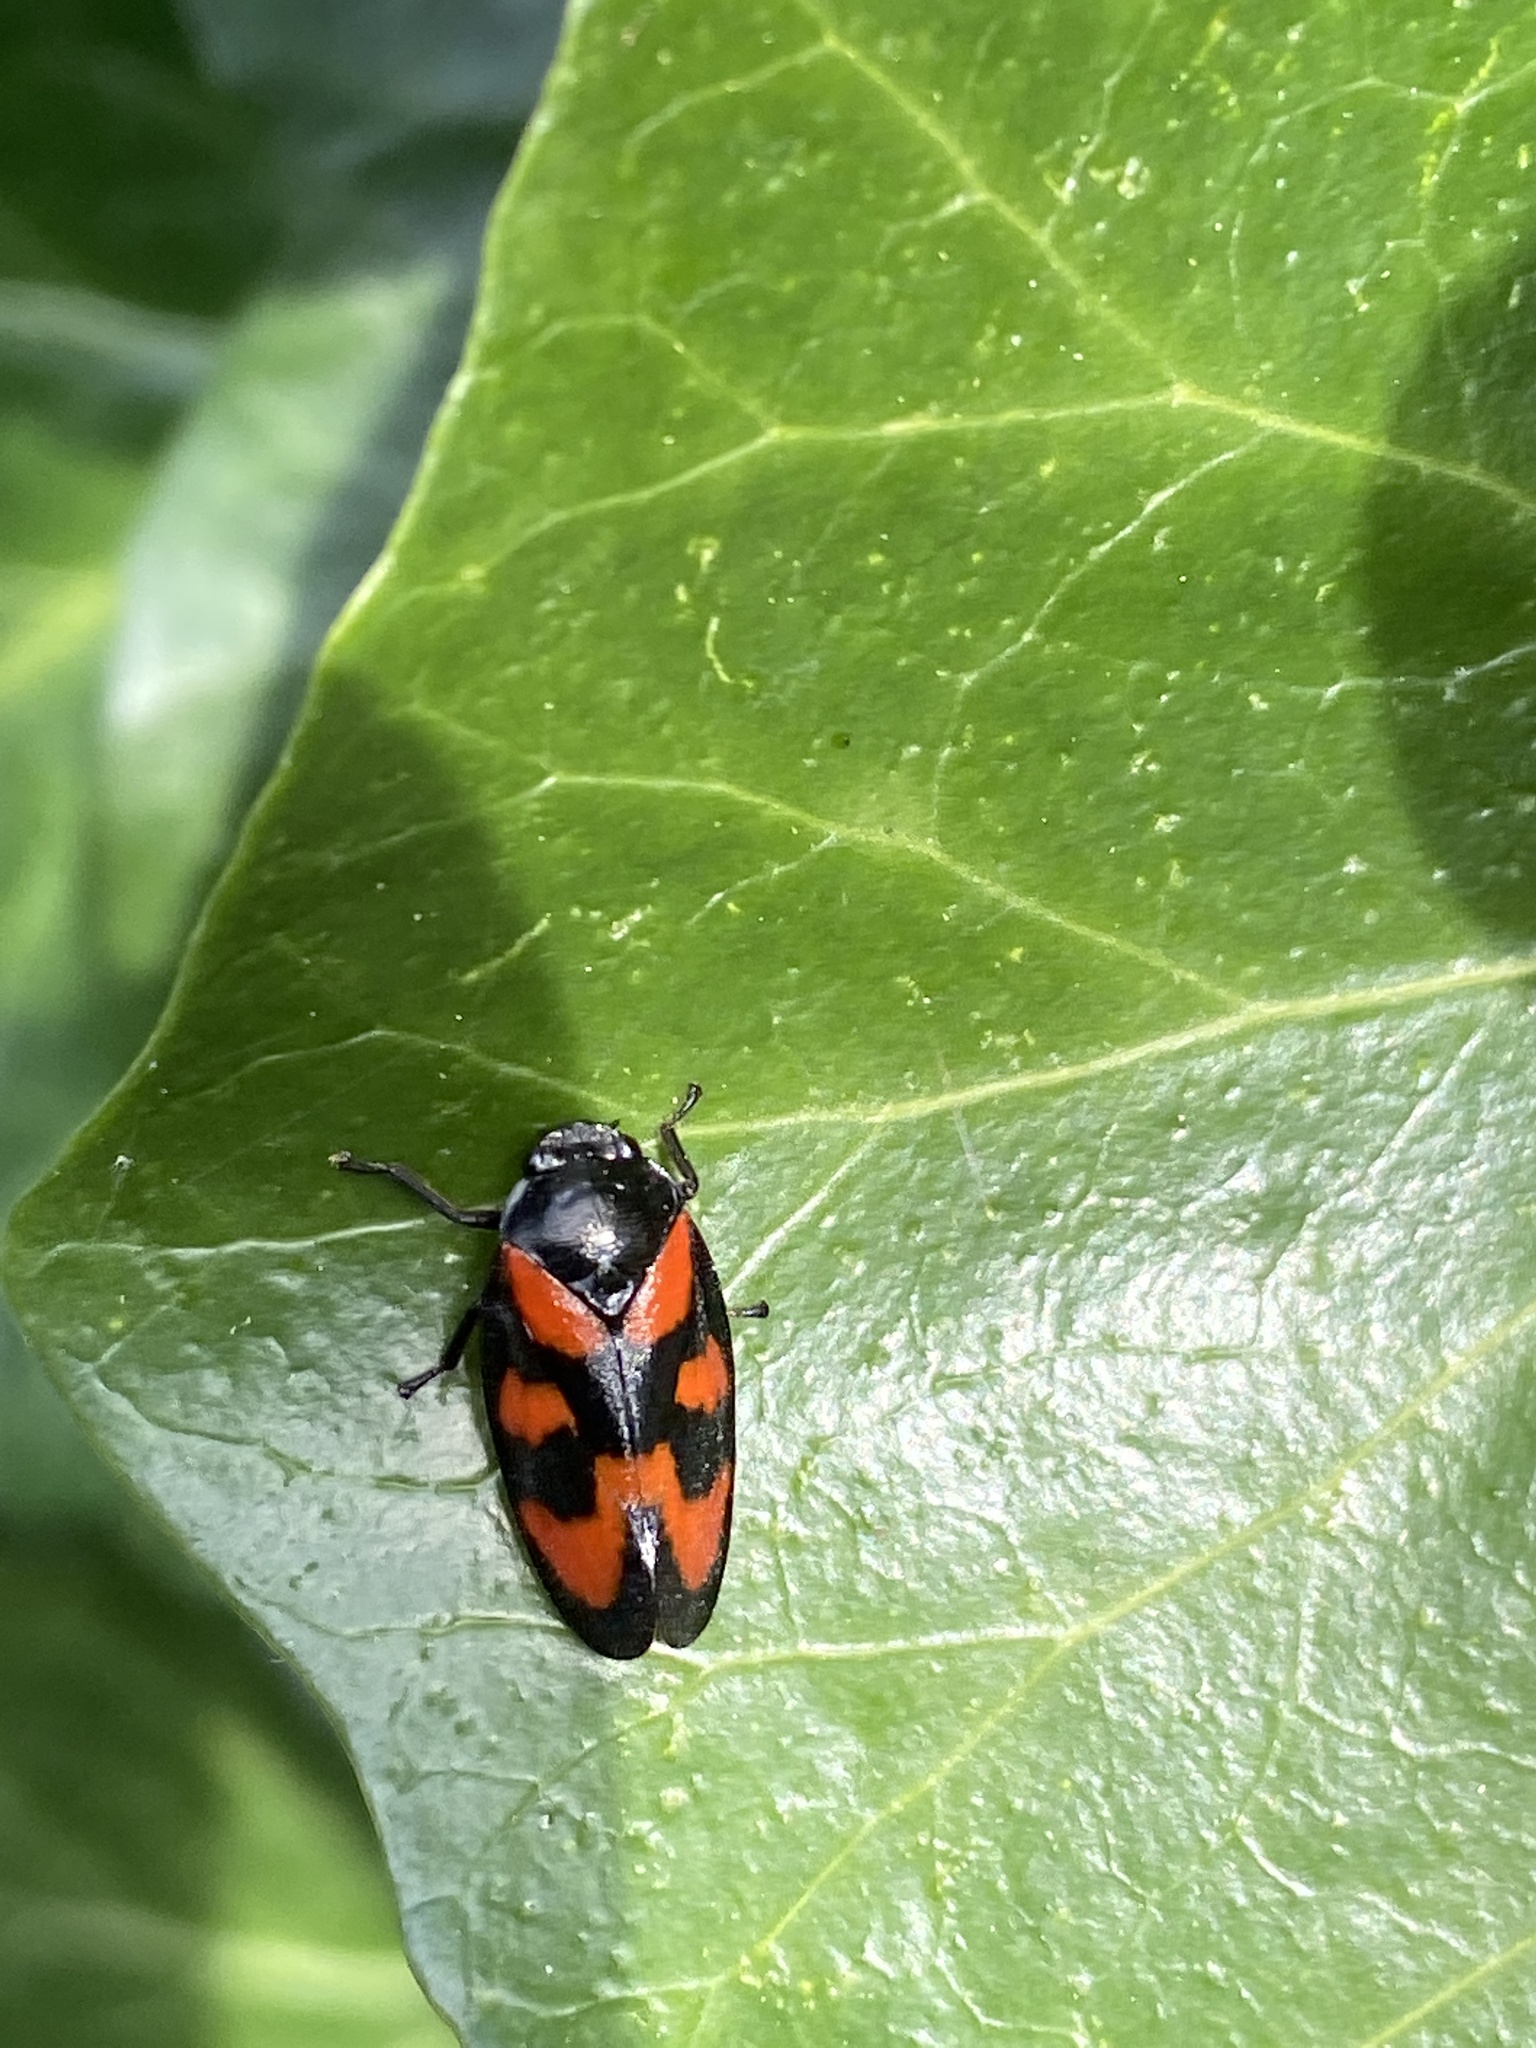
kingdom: Animalia
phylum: Arthropoda
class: Insecta
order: Hemiptera
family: Cercopidae
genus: Cercopis
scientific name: Cercopis vulnerata
